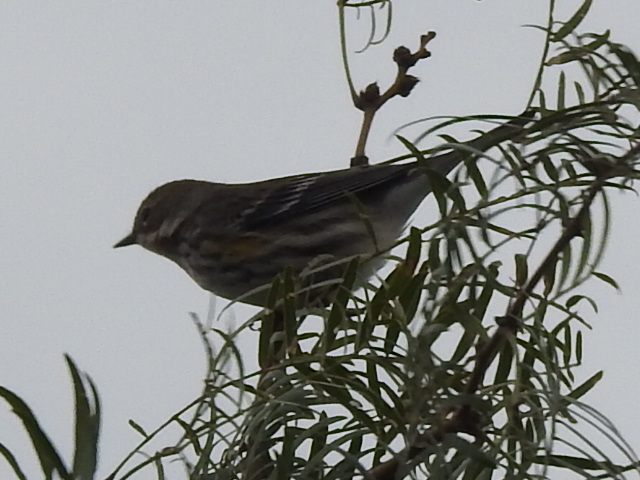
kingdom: Animalia
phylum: Chordata
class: Aves
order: Passeriformes
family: Parulidae
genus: Setophaga
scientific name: Setophaga coronata
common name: Myrtle warbler
